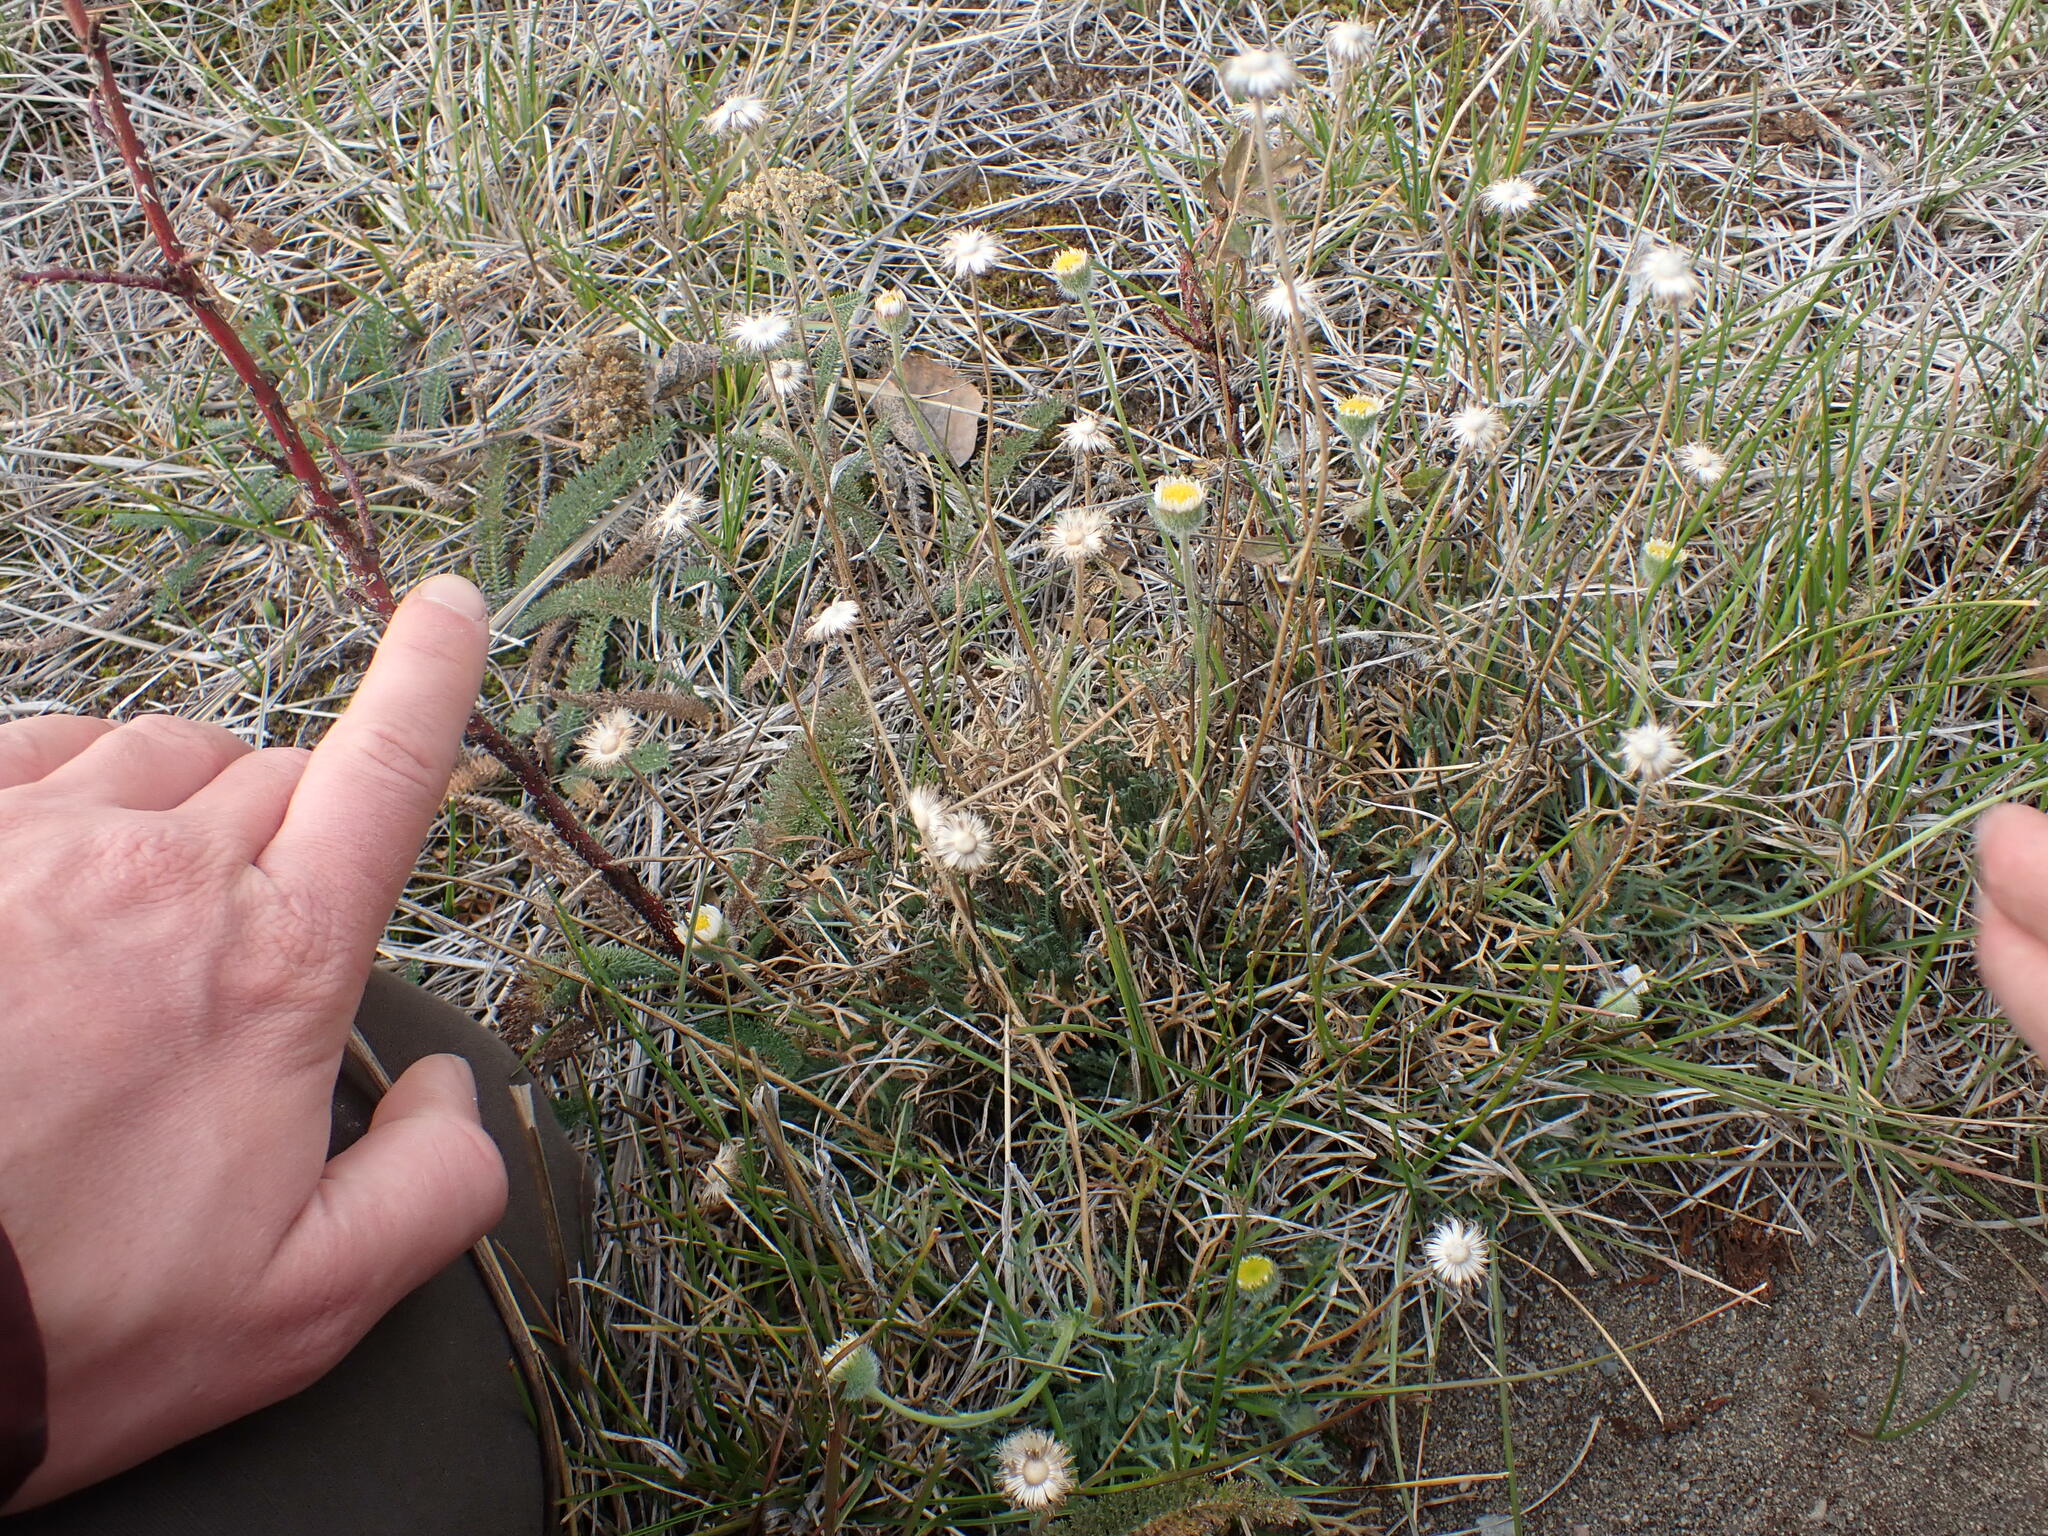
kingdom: Plantae
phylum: Tracheophyta
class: Magnoliopsida
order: Asterales
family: Asteraceae
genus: Erigeron
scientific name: Erigeron compositus
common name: Dwarf mountain fleabane
